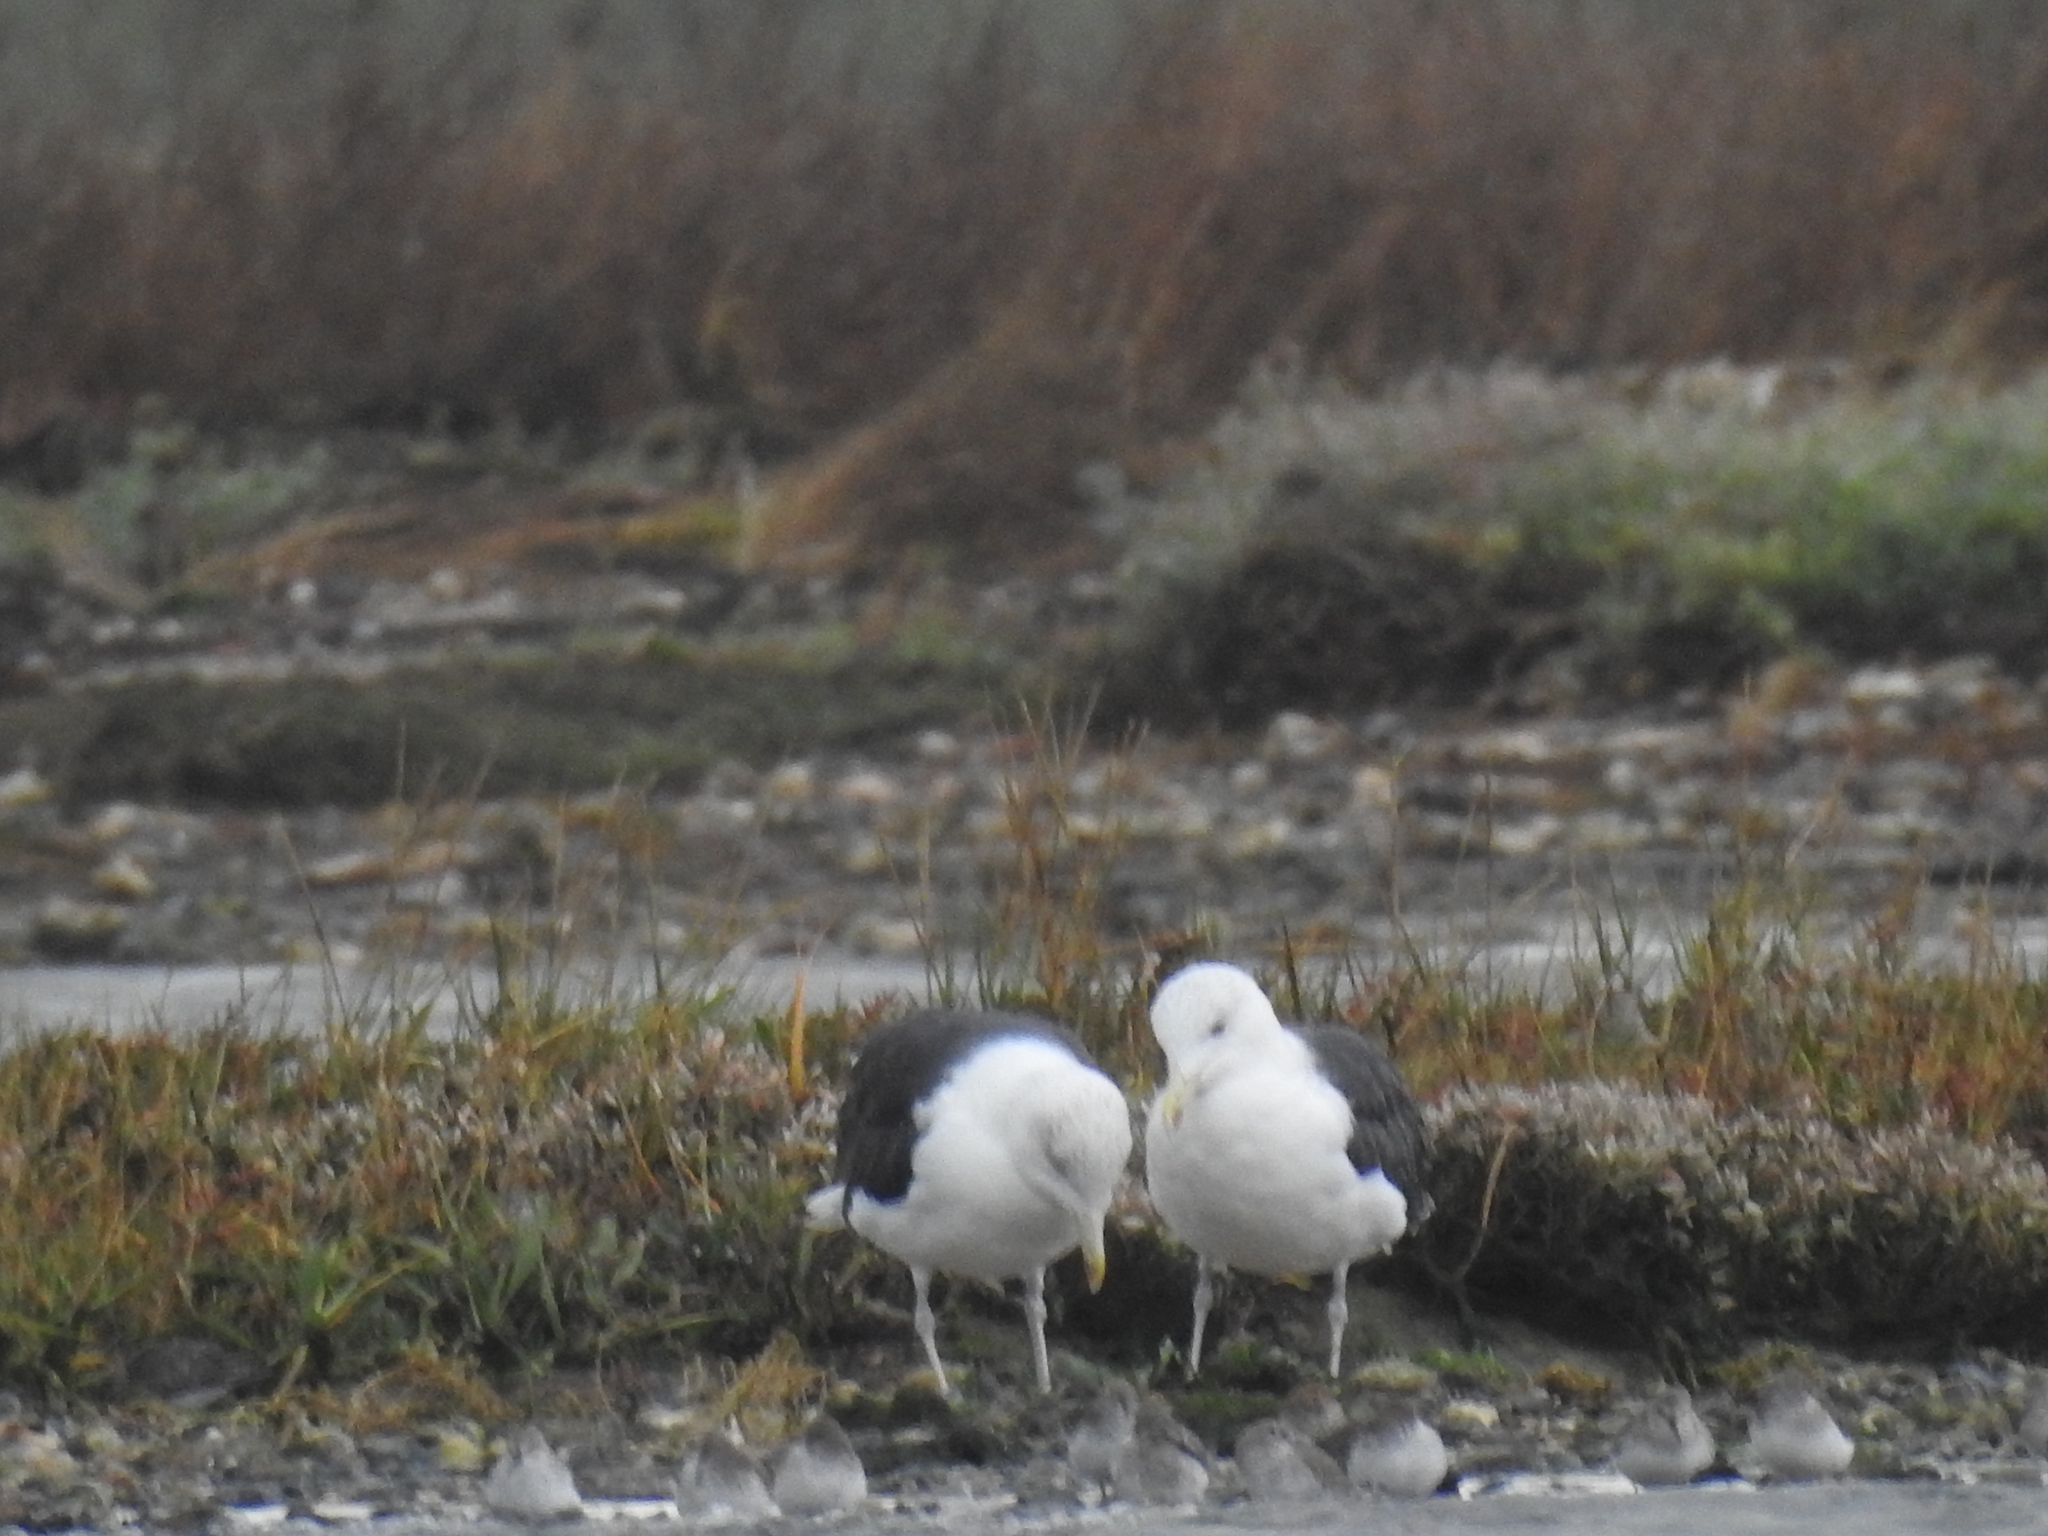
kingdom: Animalia
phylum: Chordata
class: Aves
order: Charadriiformes
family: Laridae
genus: Larus
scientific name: Larus marinus
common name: Great black-backed gull
